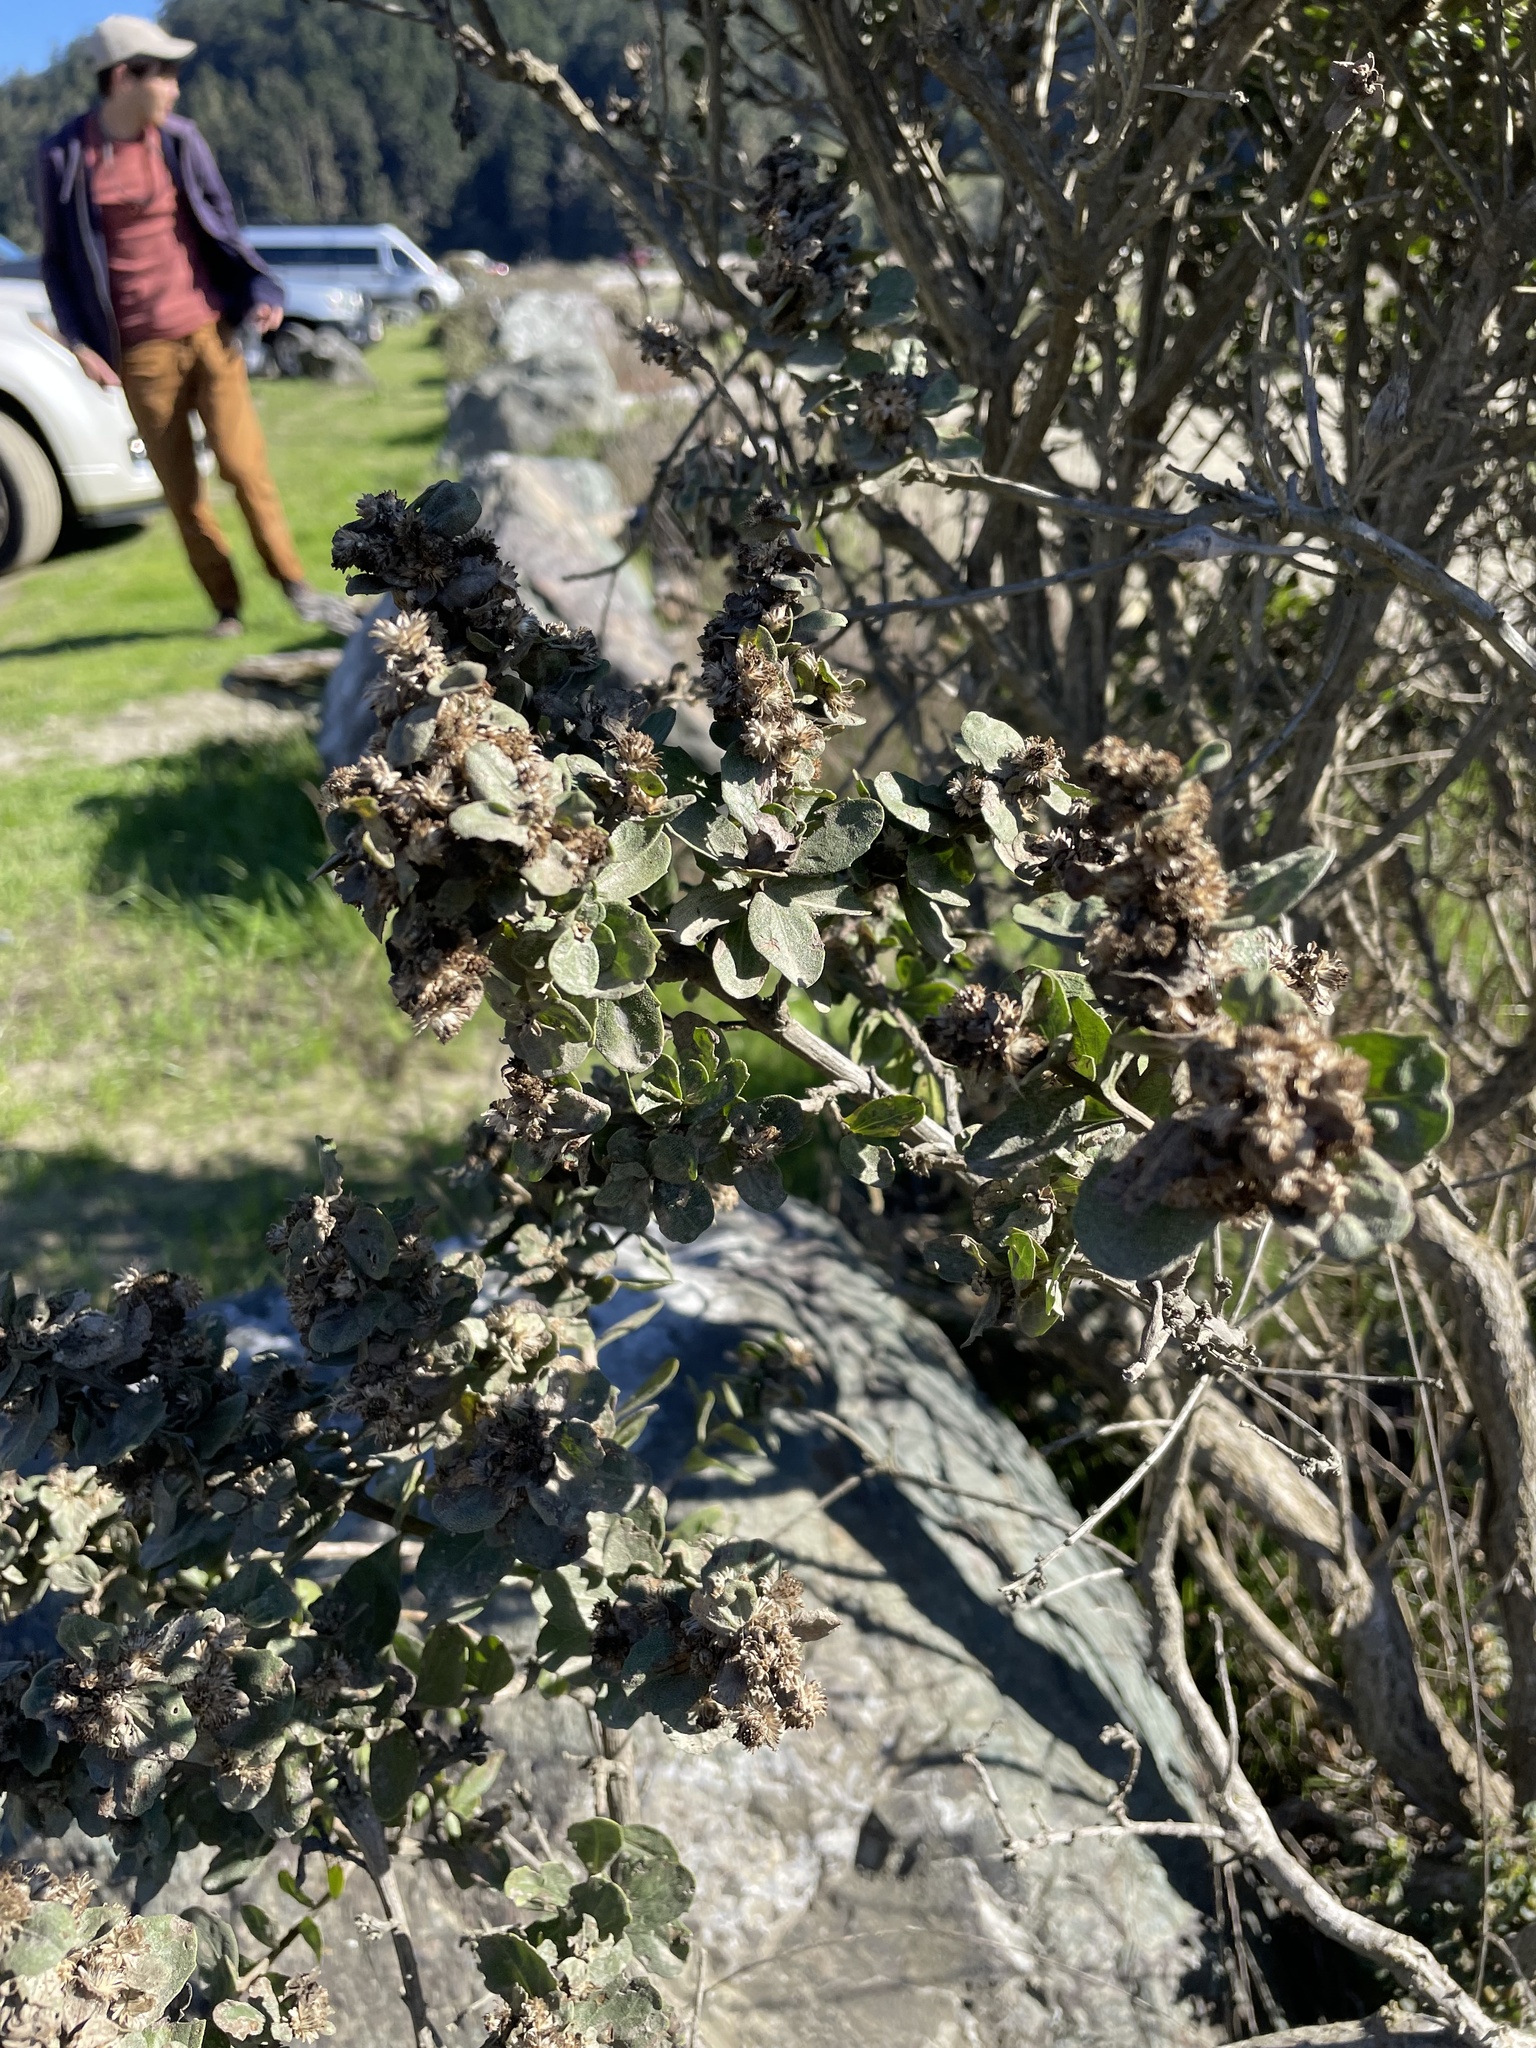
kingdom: Plantae
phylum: Tracheophyta
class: Magnoliopsida
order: Asterales
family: Asteraceae
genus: Baccharis
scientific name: Baccharis pilularis
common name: Coyotebrush
